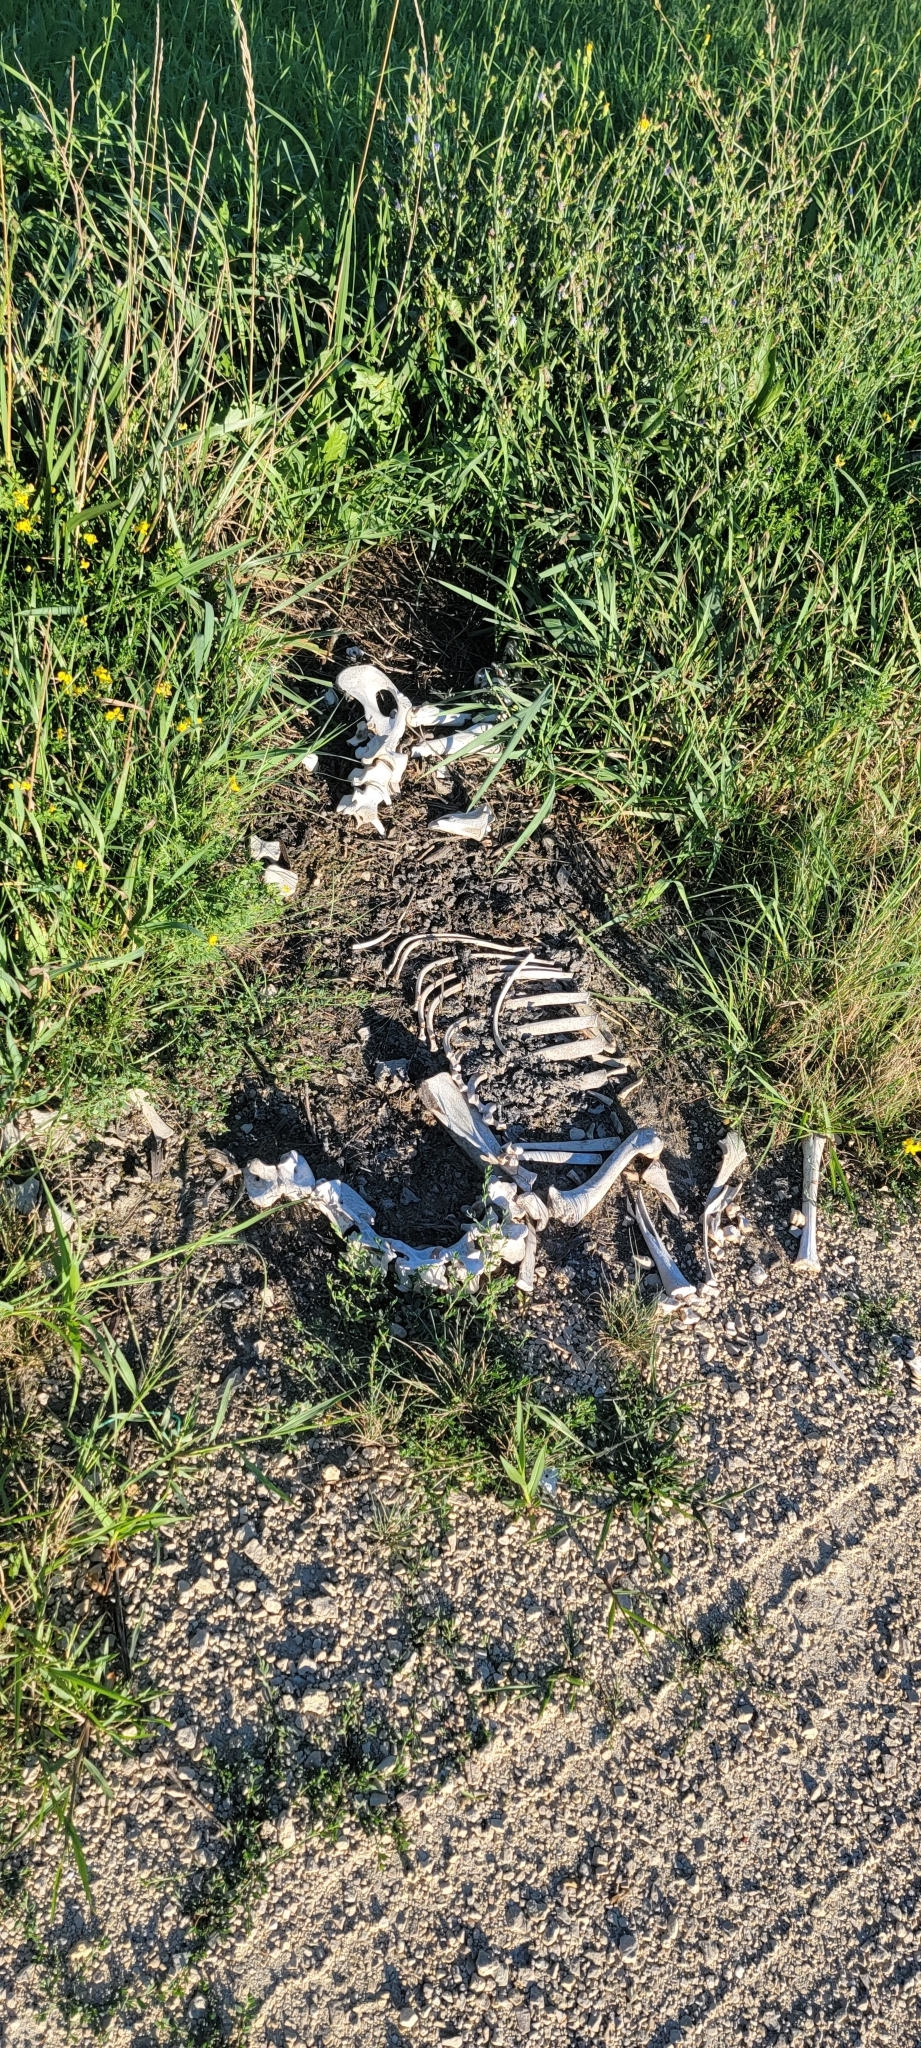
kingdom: Animalia
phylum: Chordata
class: Mammalia
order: Artiodactyla
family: Cervidae
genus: Odocoileus
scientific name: Odocoileus virginianus
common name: White-tailed deer
